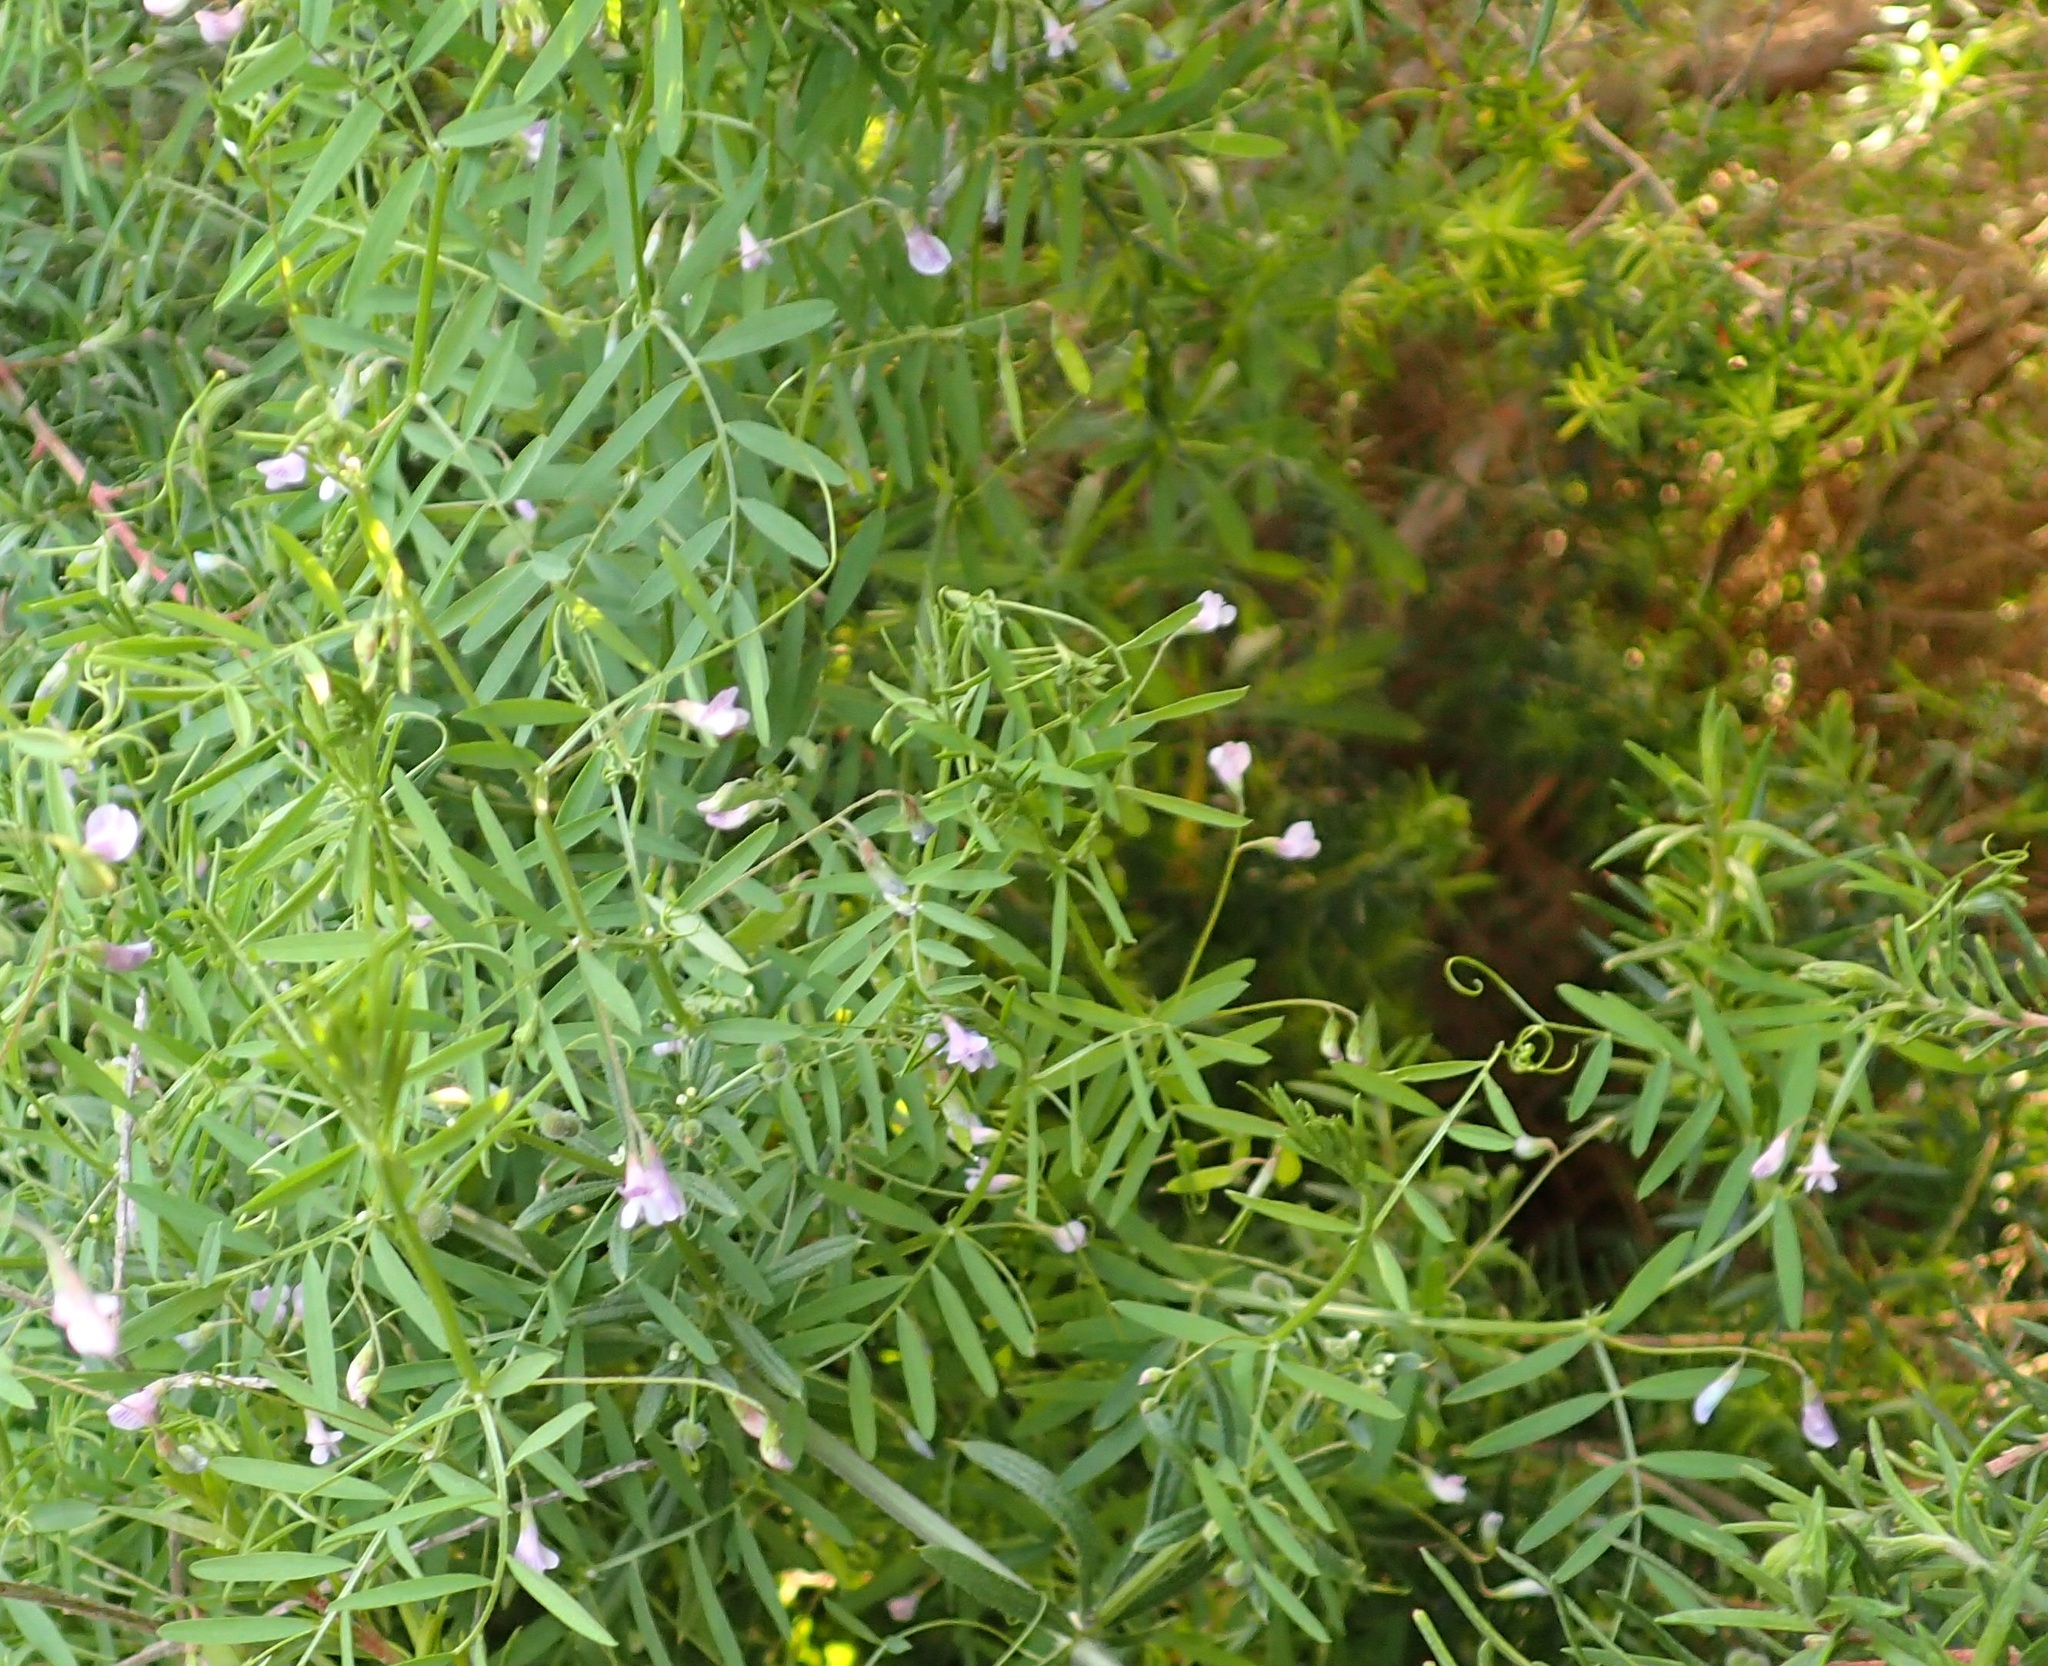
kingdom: Plantae
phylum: Tracheophyta
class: Magnoliopsida
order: Fabales
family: Fabaceae
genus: Vicia
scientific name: Vicia tetrasperma
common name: Smooth tare
